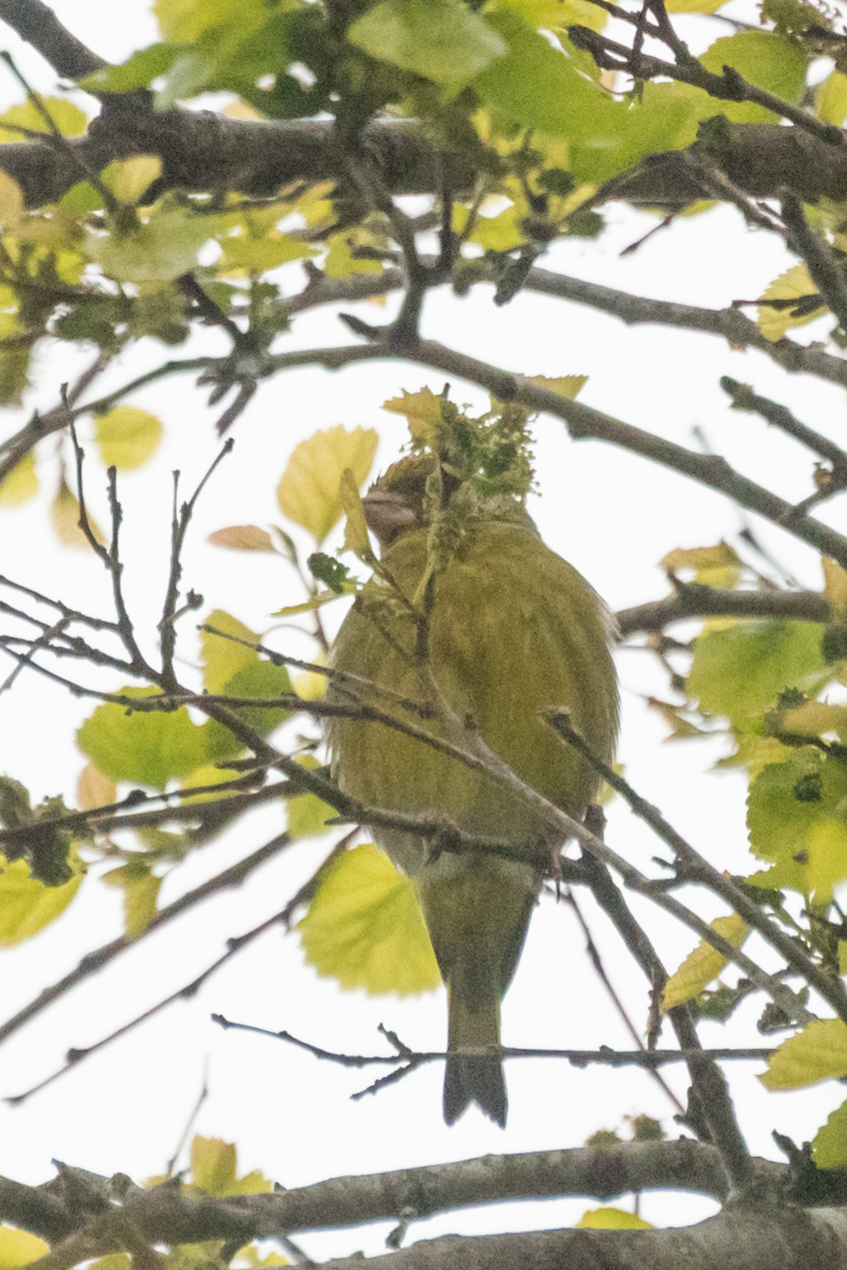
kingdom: Plantae
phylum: Tracheophyta
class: Liliopsida
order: Poales
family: Poaceae
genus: Chloris
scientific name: Chloris chloris
